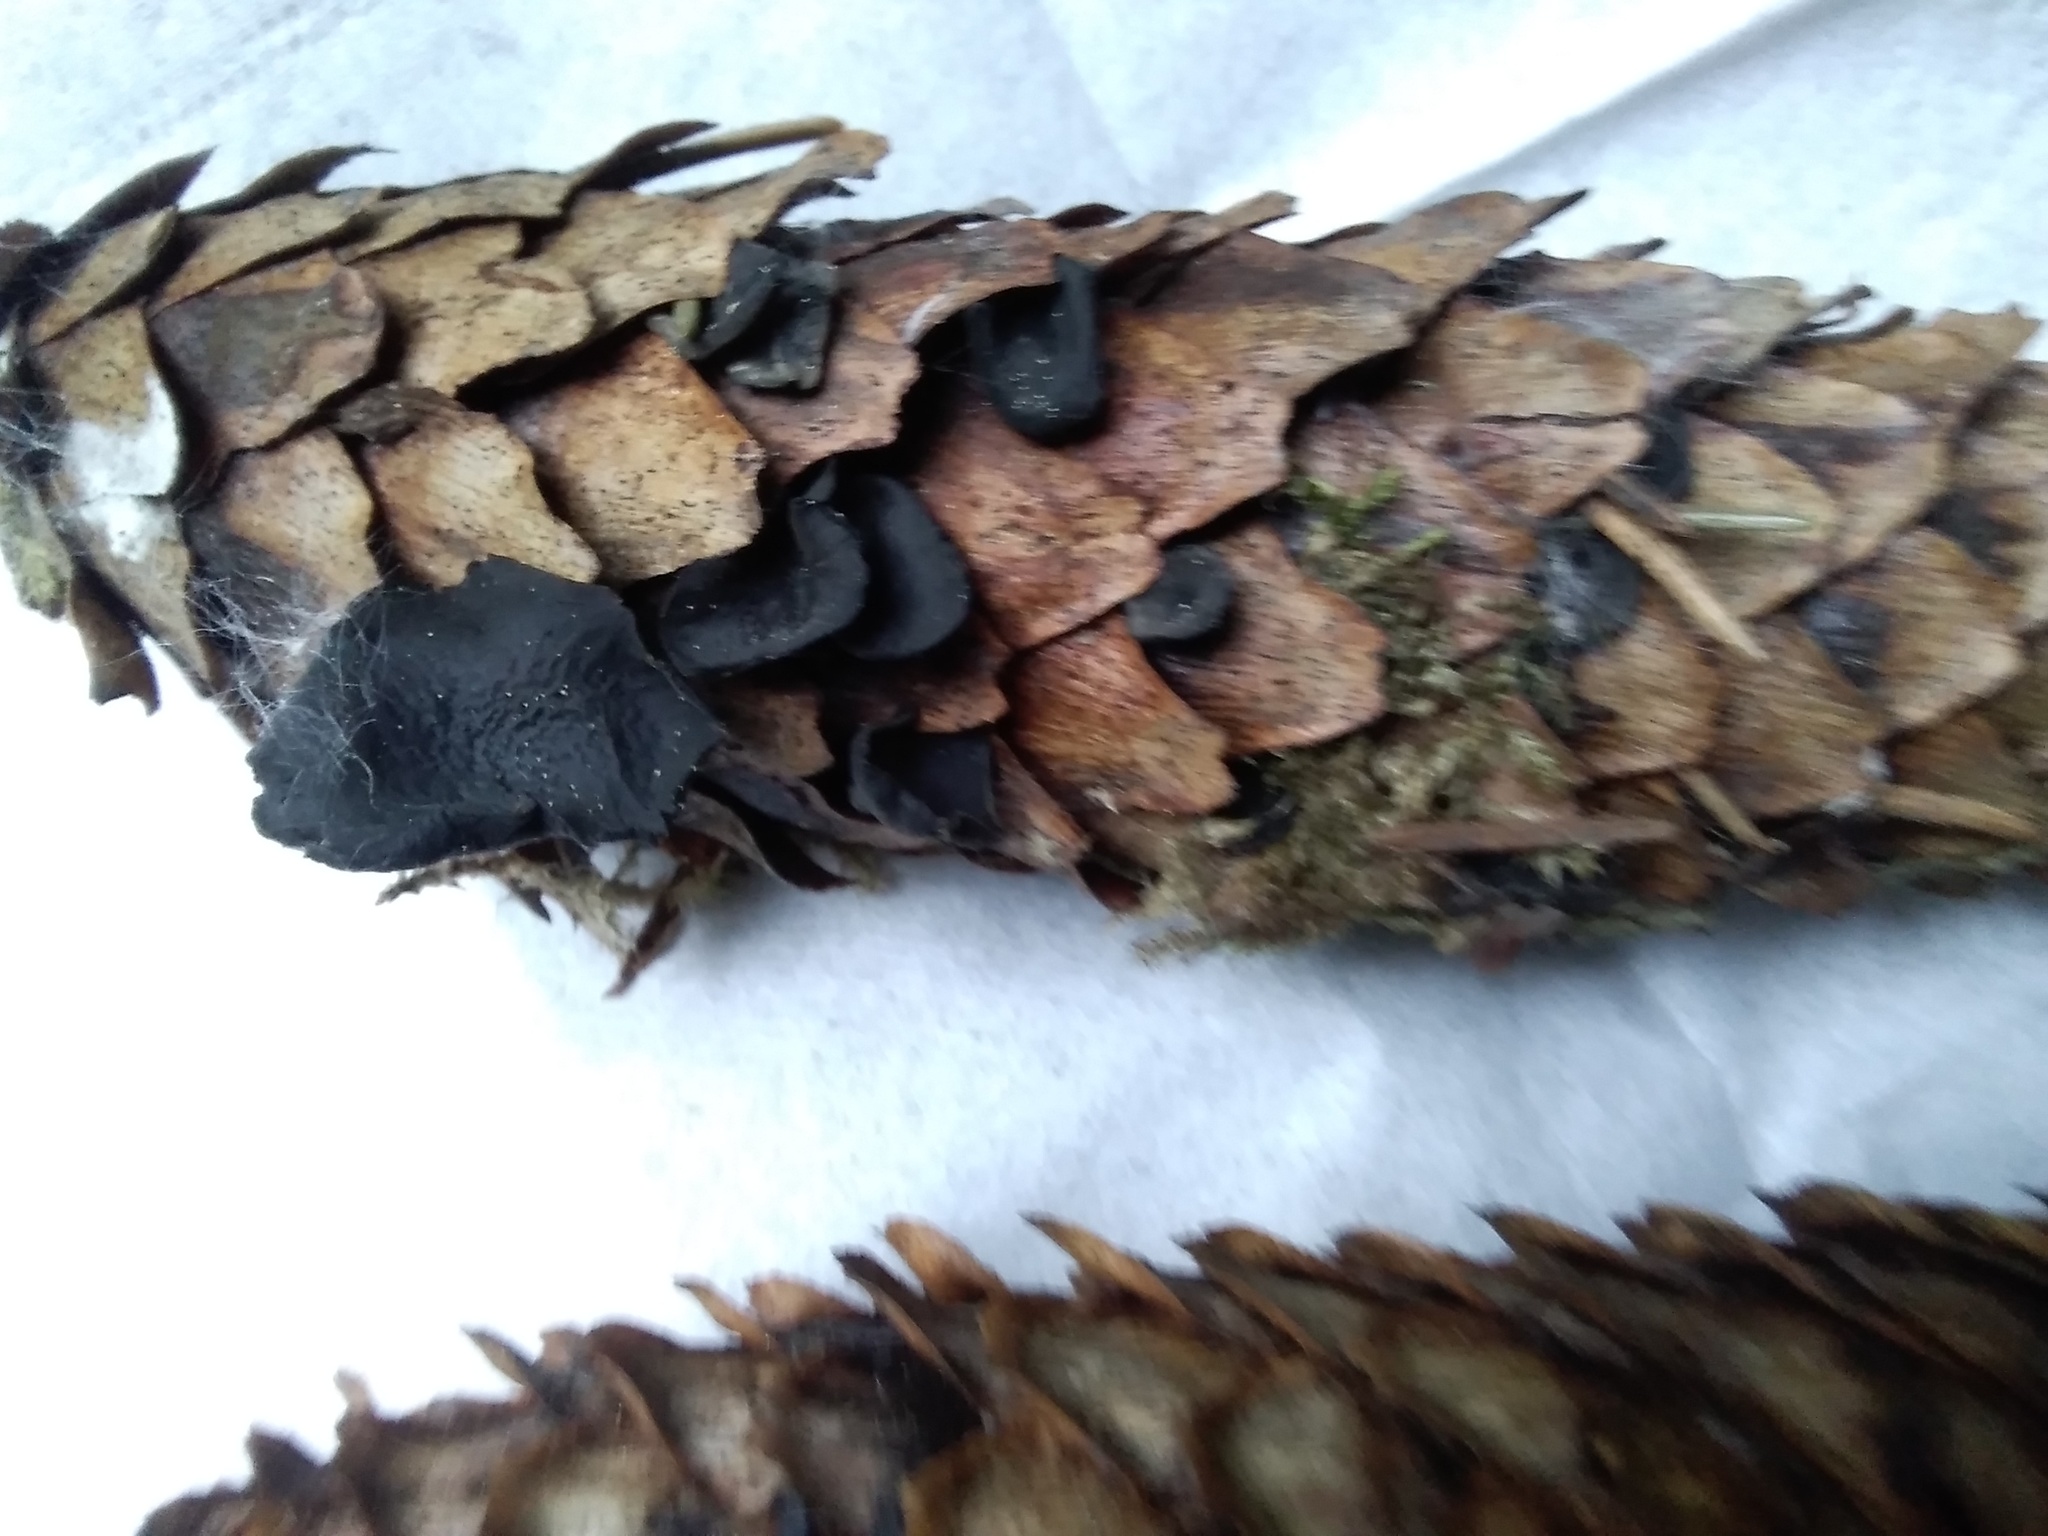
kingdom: Fungi
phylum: Ascomycota
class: Leotiomycetes
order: Helotiales
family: Rutstroemiaceae
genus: Rutstroemia
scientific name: Rutstroemia bulgarioides
